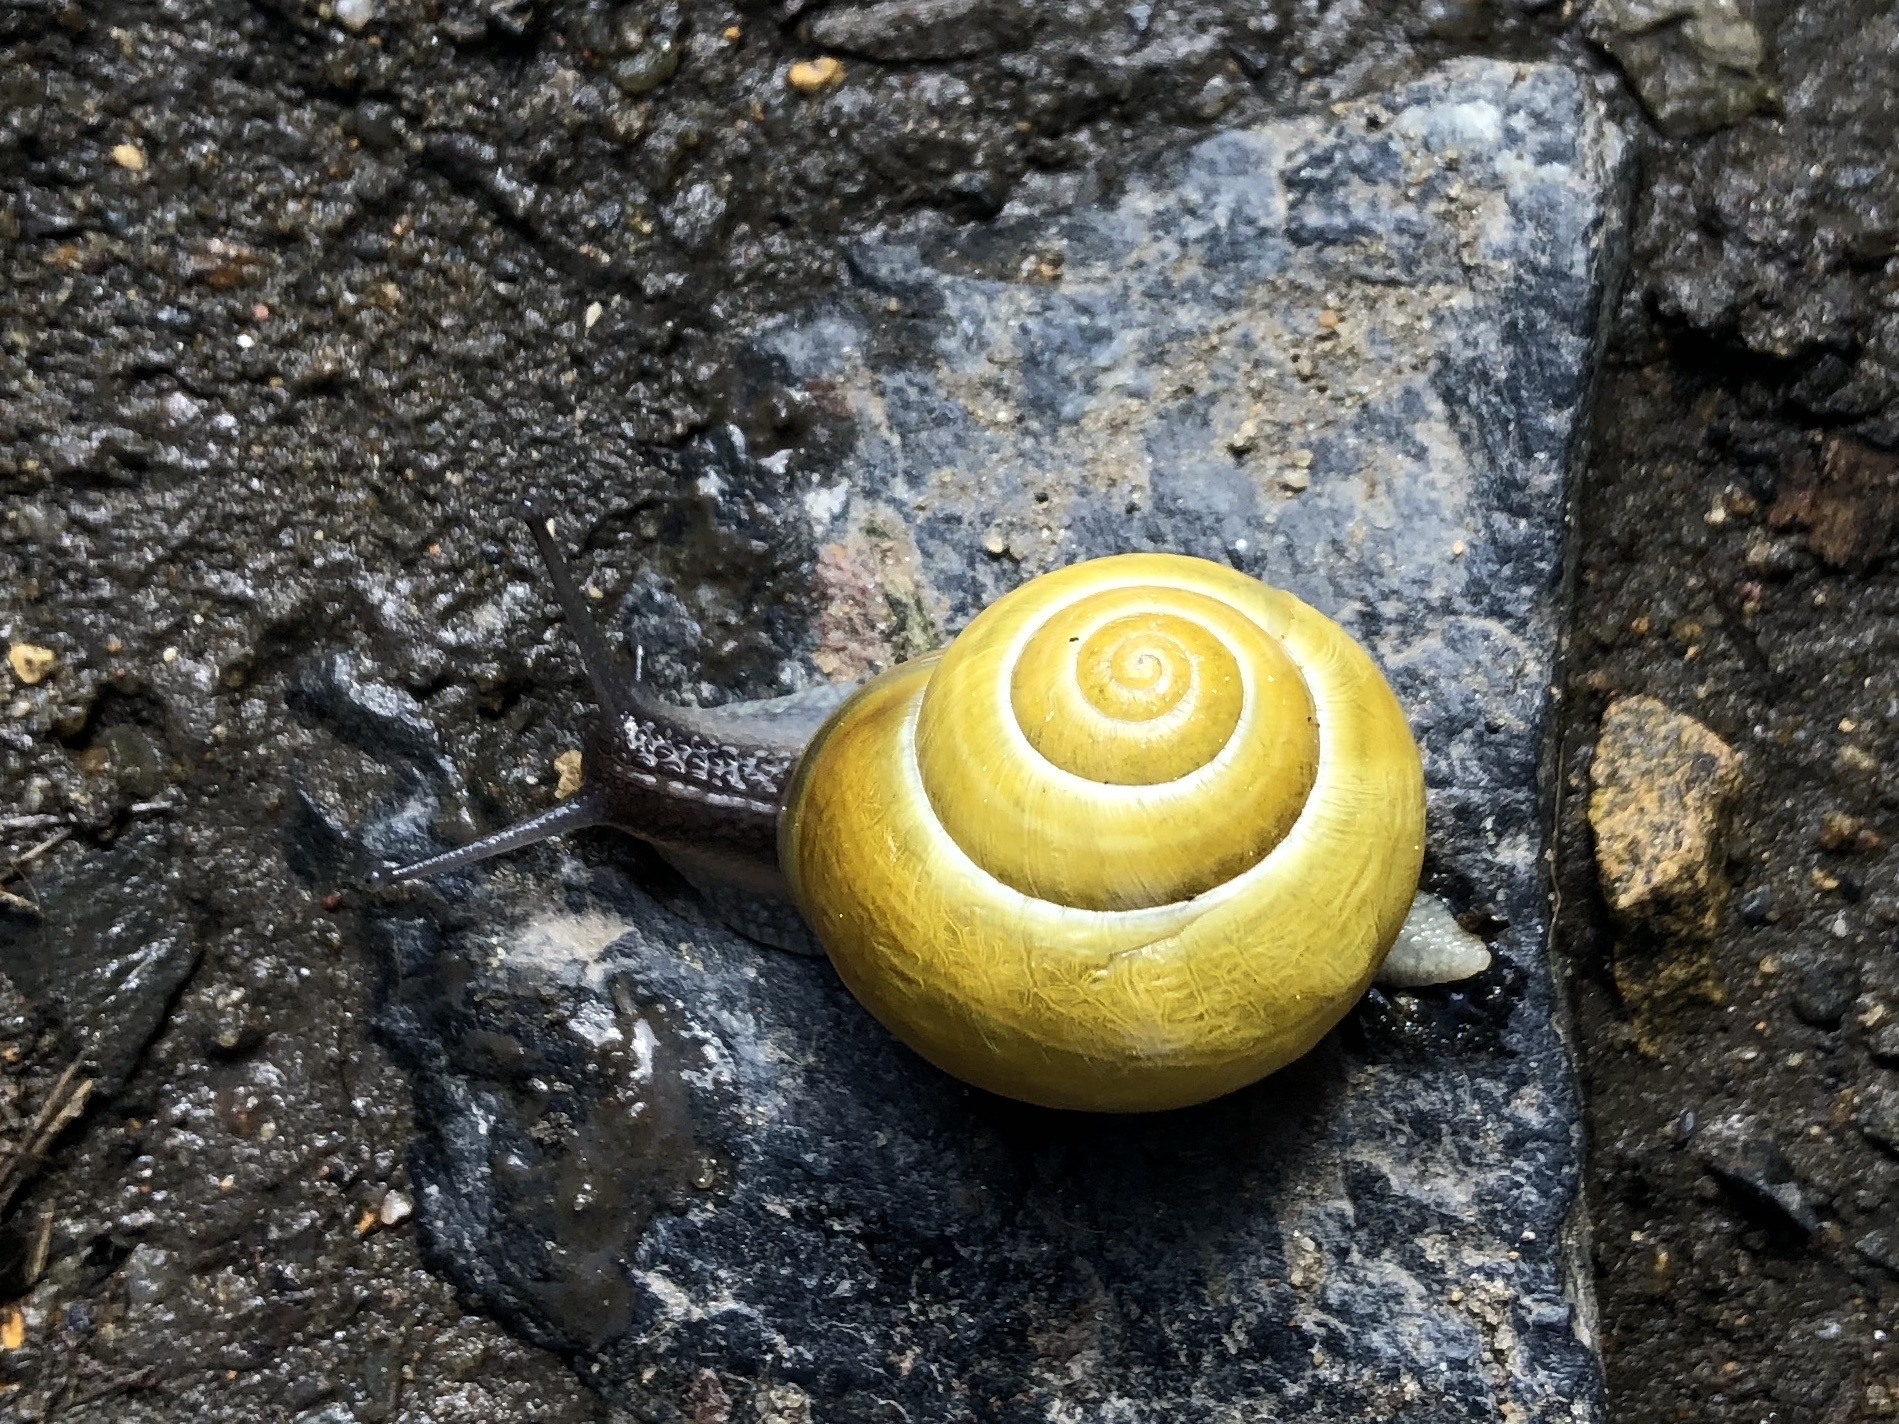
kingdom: Animalia
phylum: Mollusca
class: Gastropoda
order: Stylommatophora
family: Helicidae
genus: Cepaea
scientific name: Cepaea hortensis
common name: White-lip gardensnail
